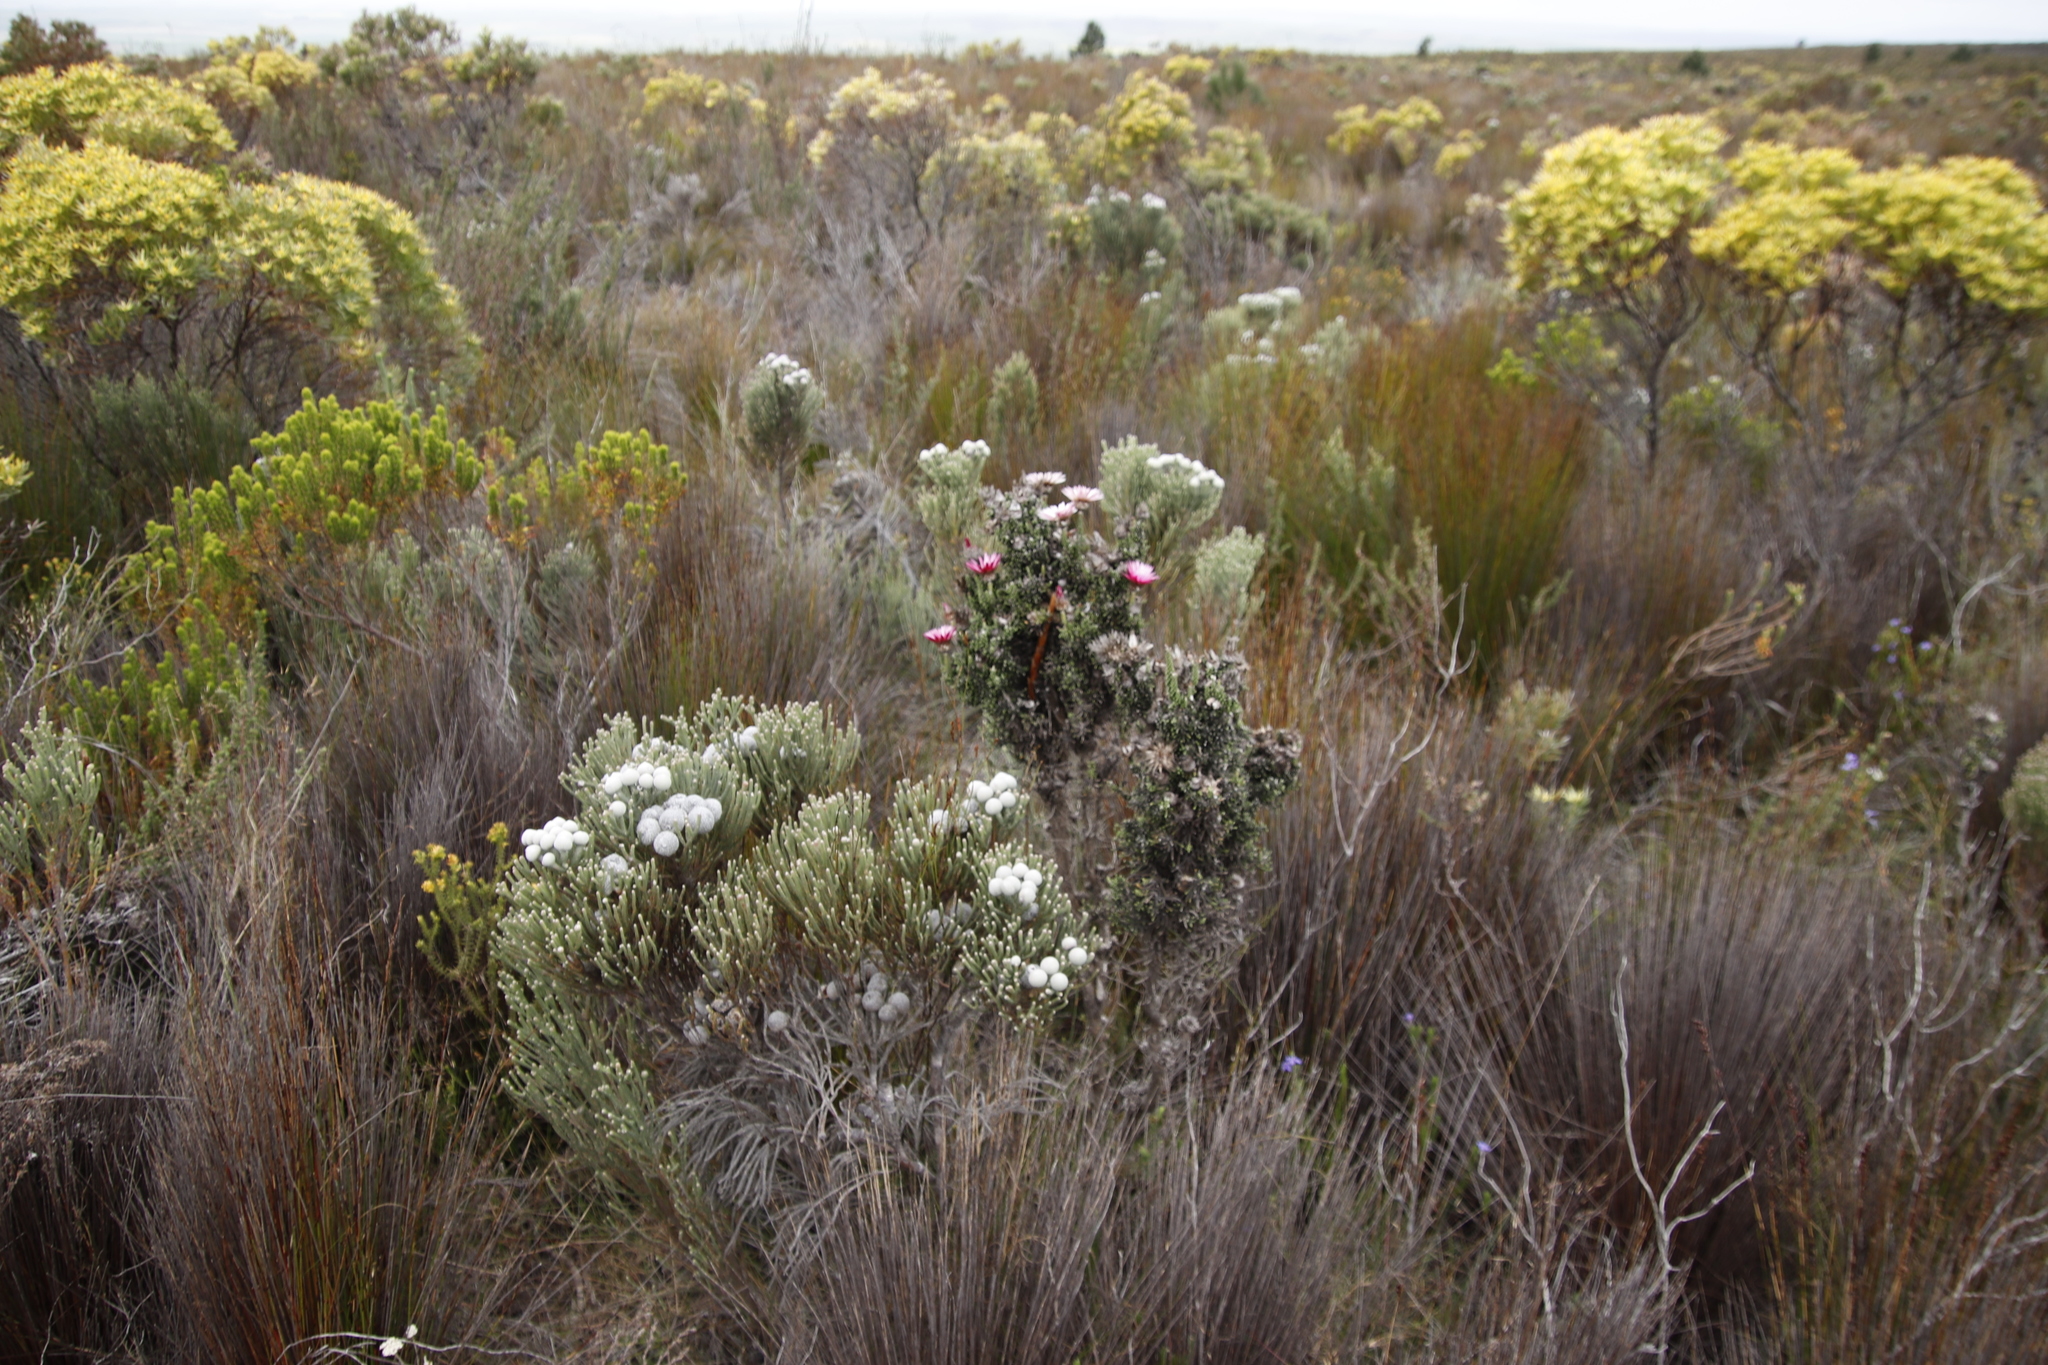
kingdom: Plantae
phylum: Tracheophyta
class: Magnoliopsida
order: Asterales
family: Asteraceae
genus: Phaenocoma
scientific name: Phaenocoma prolifera
